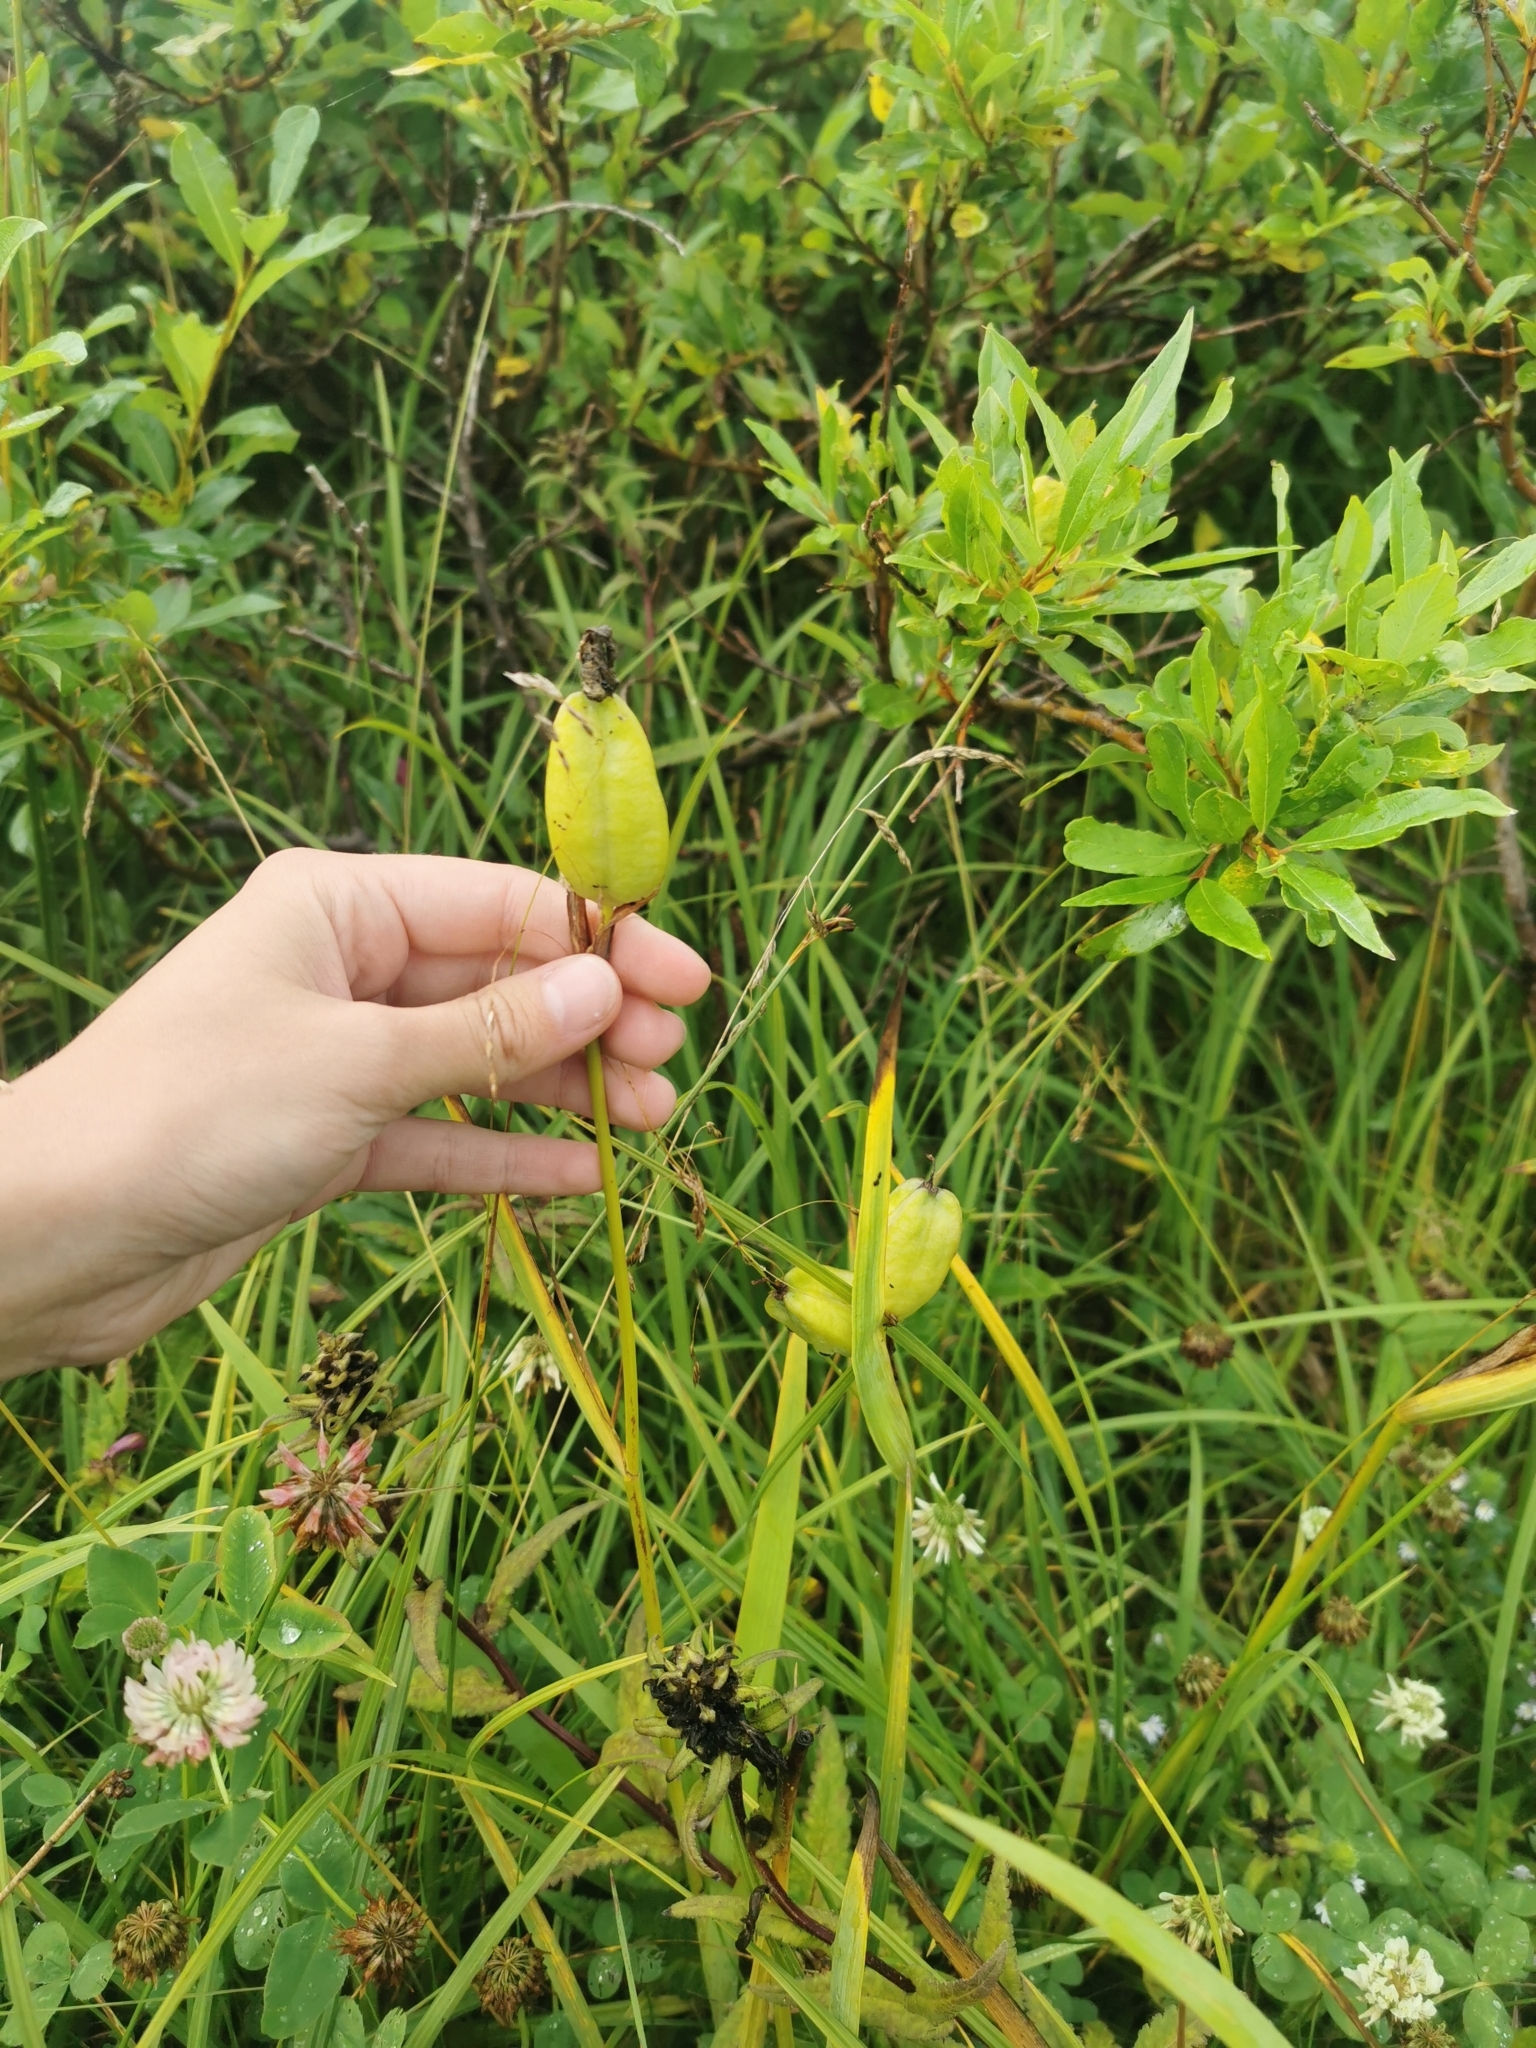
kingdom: Plantae
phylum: Tracheophyta
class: Liliopsida
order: Asparagales
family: Iridaceae
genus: Iris
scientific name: Iris setosa
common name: Arctic blue flag
